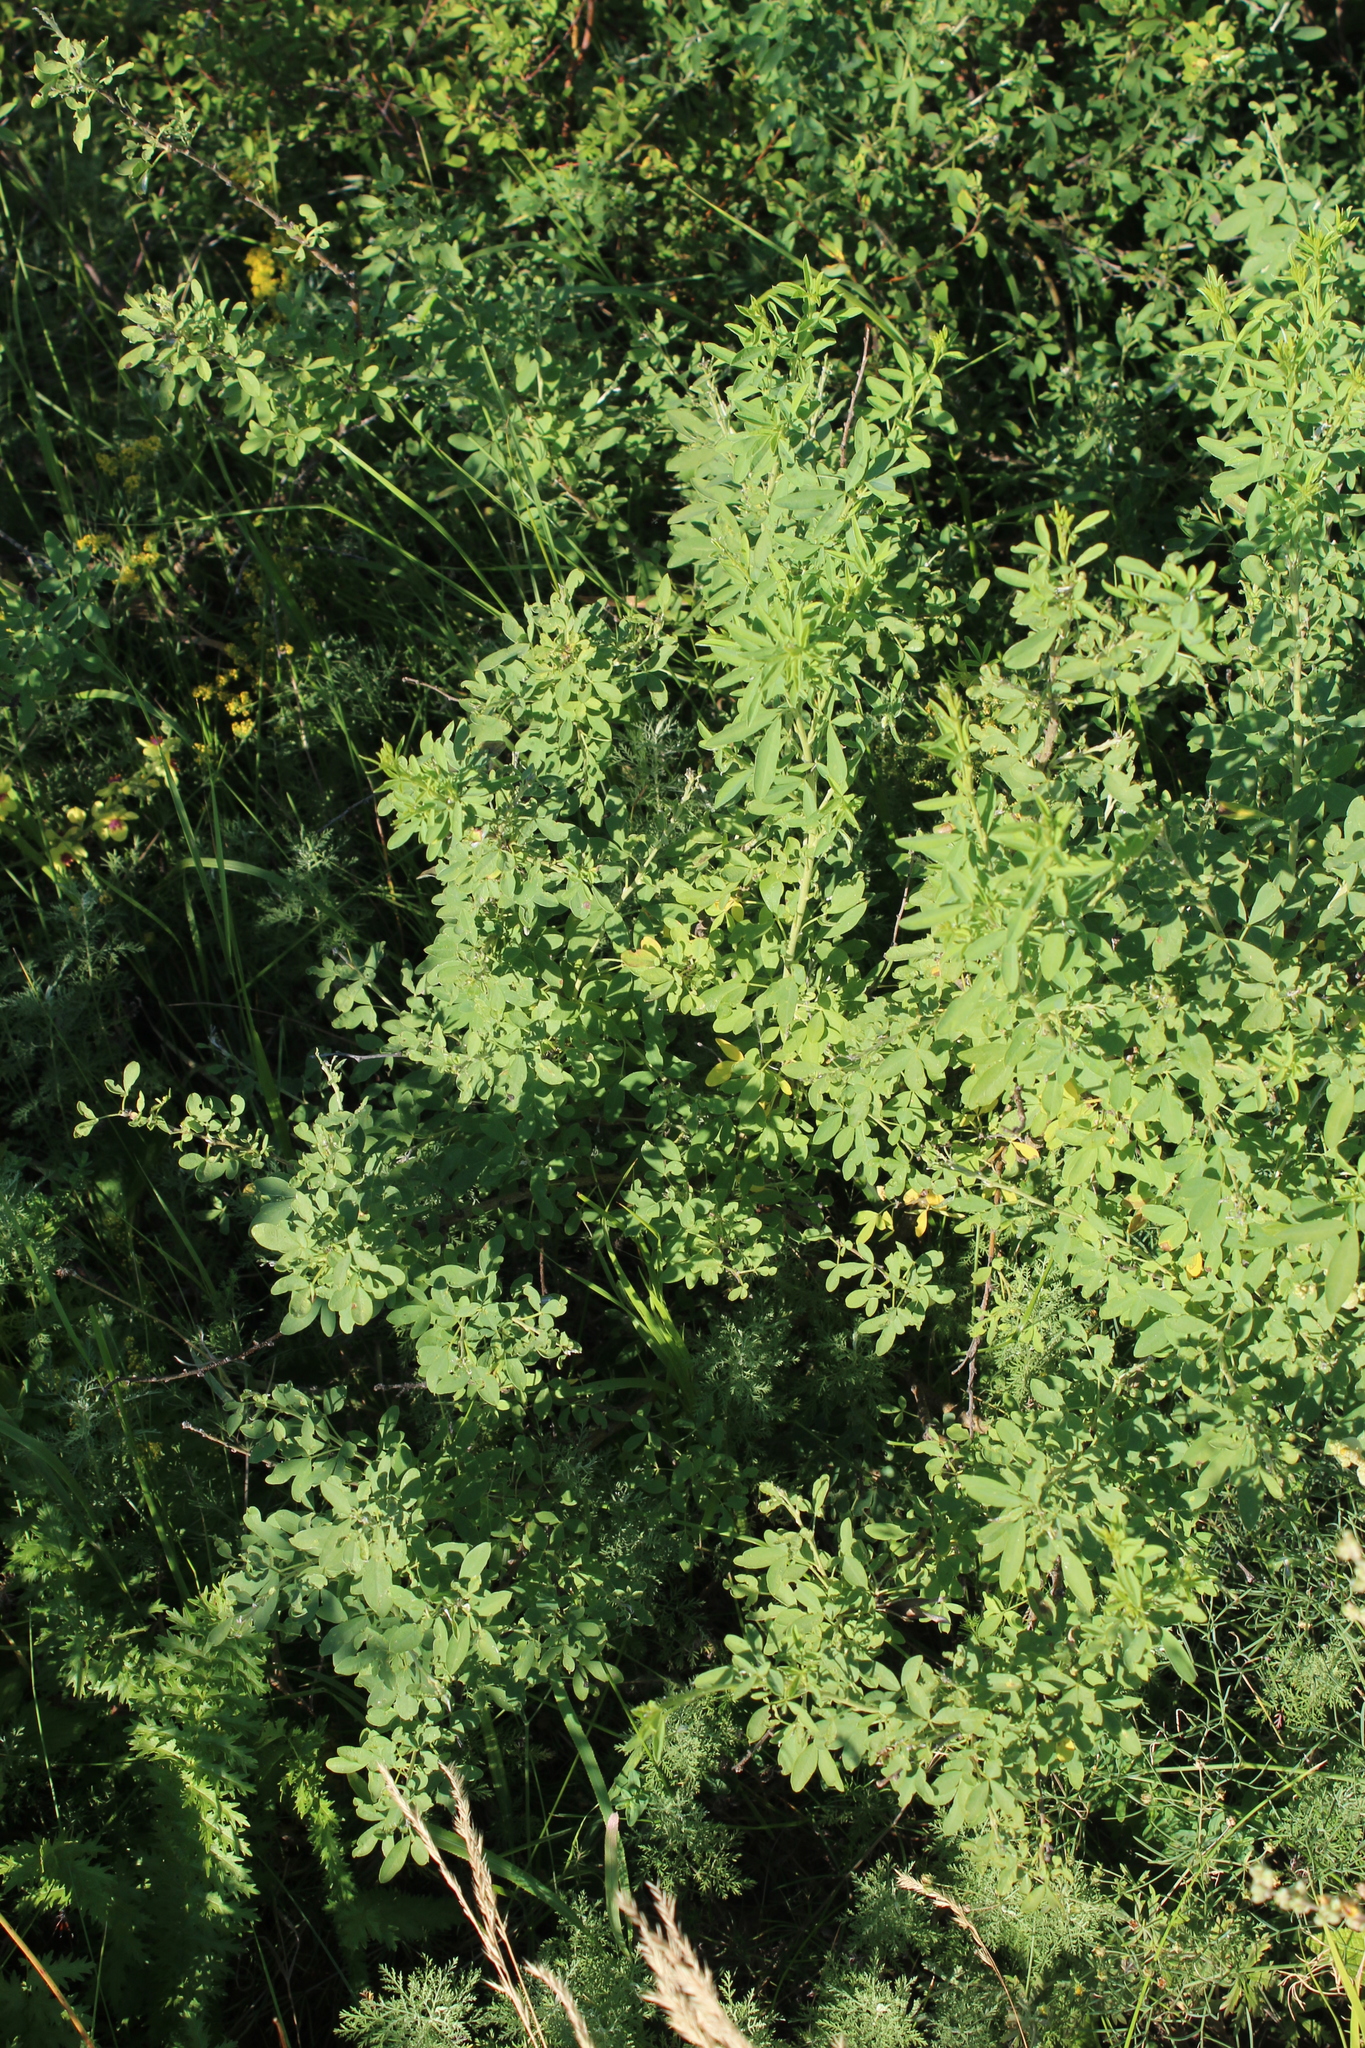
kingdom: Plantae
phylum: Tracheophyta
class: Magnoliopsida
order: Fabales
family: Fabaceae
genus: Chamaecytisus
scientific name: Chamaecytisus ruthenicus
